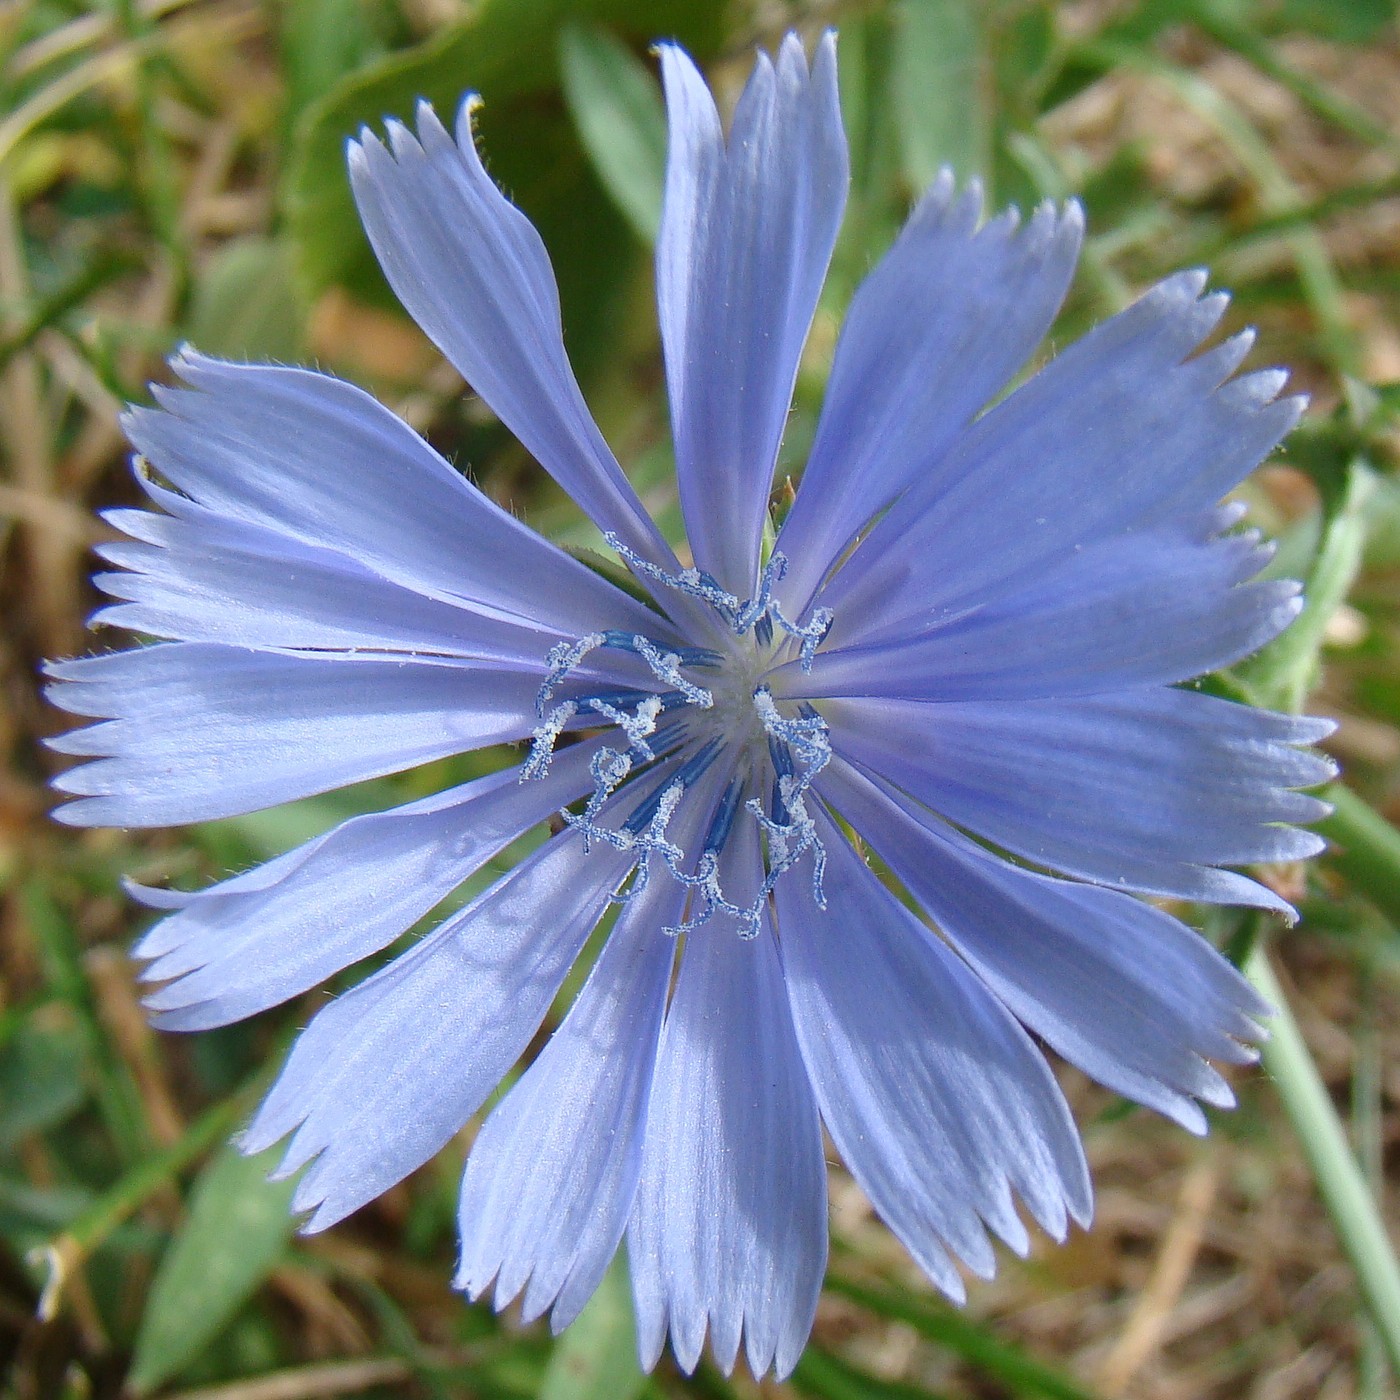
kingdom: Plantae
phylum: Tracheophyta
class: Magnoliopsida
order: Asterales
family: Asteraceae
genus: Cichorium
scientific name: Cichorium intybus
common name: Chicory
